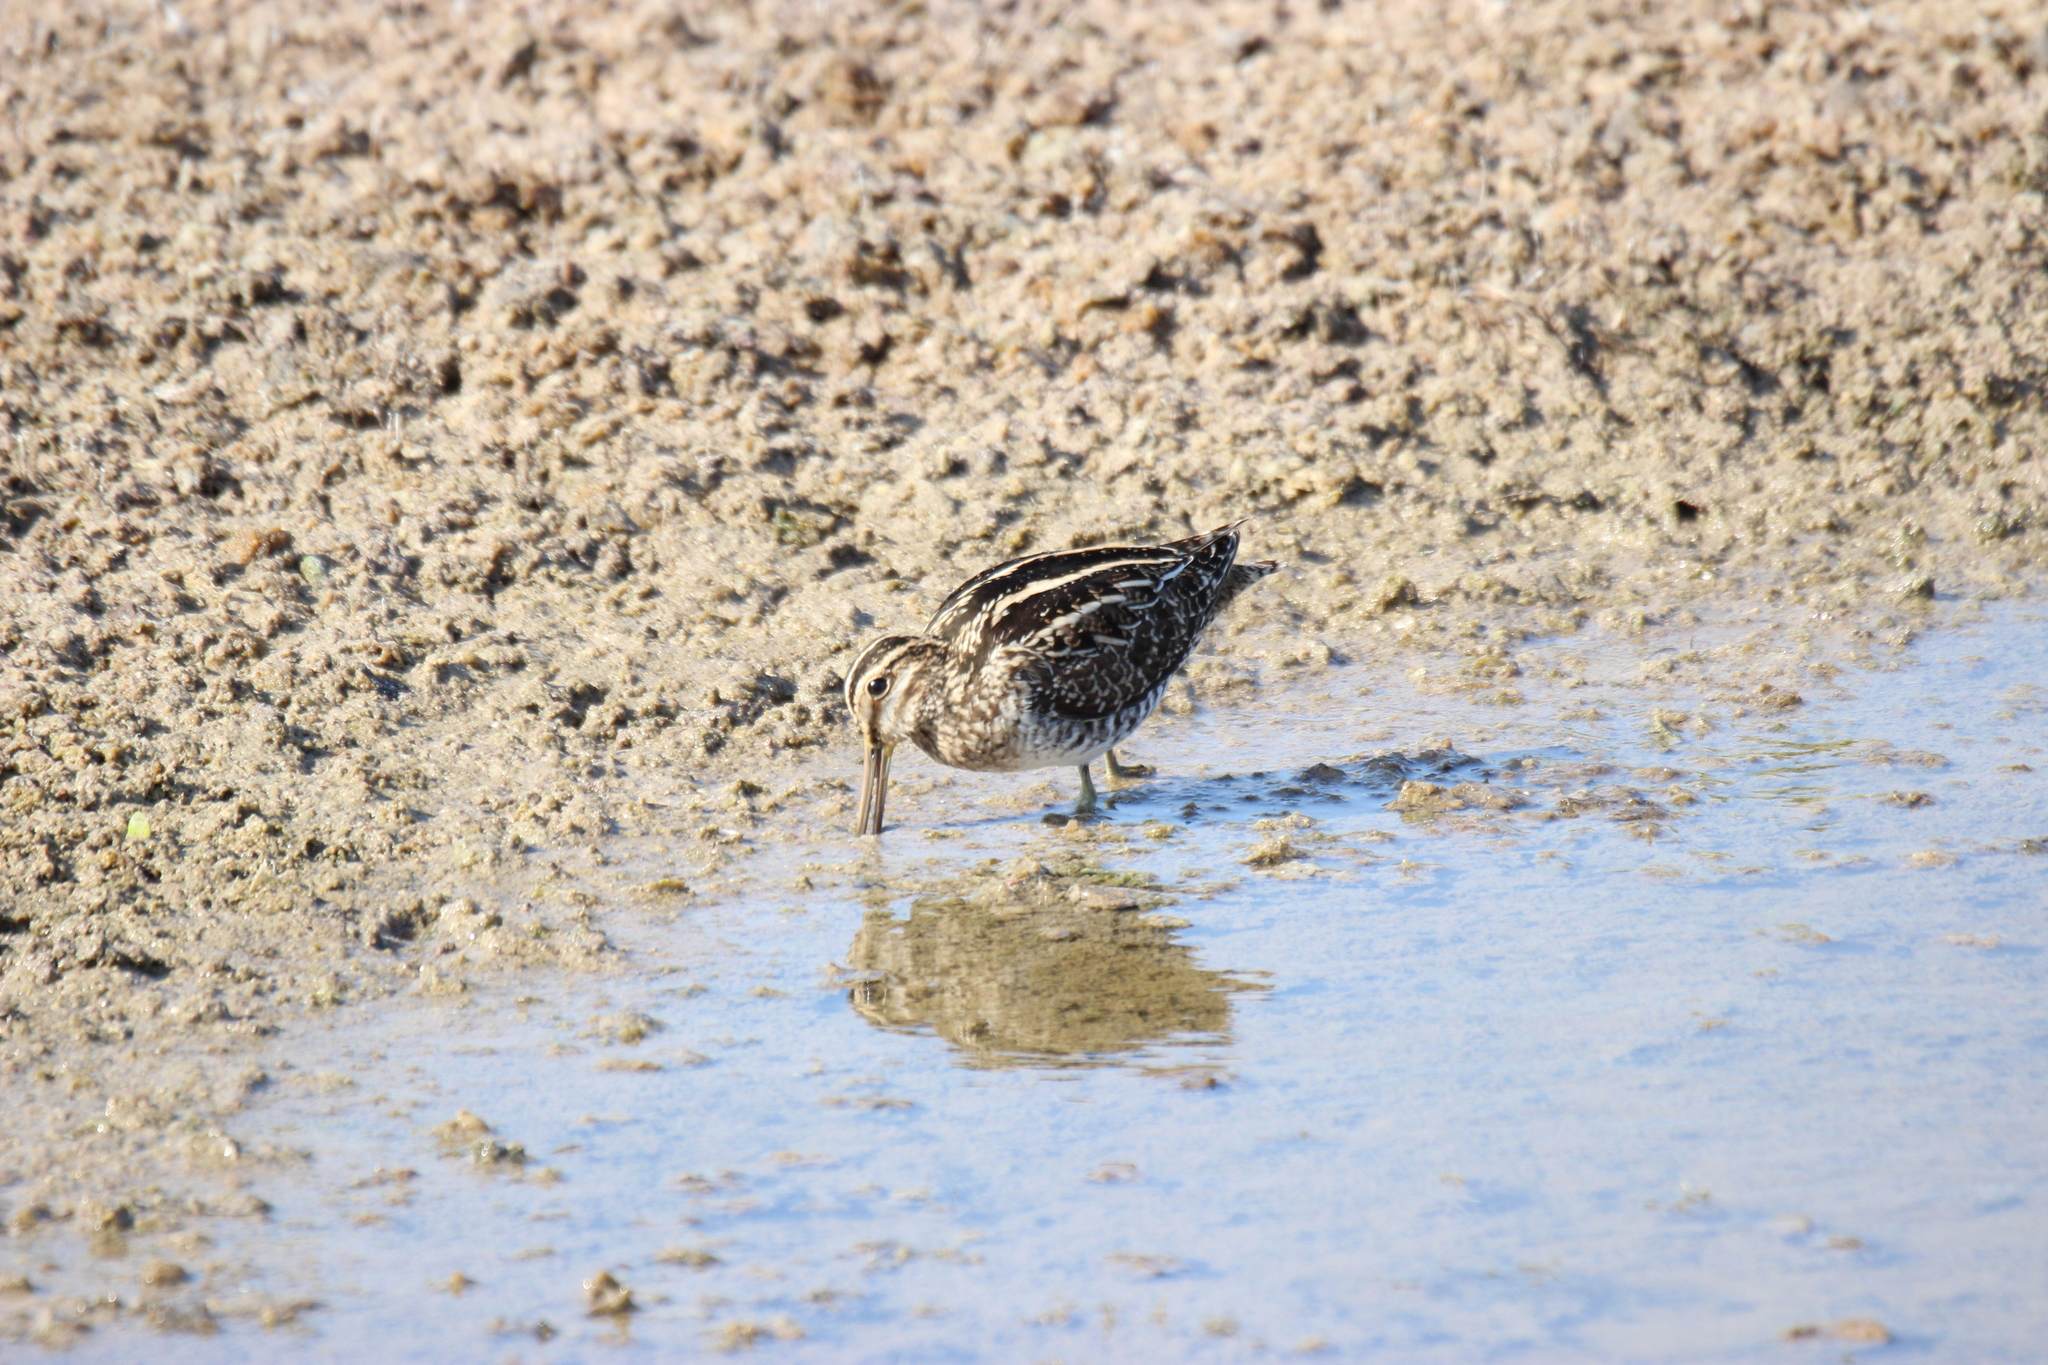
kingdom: Animalia
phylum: Chordata
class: Aves
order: Charadriiformes
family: Scolopacidae
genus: Gallinago
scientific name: Gallinago delicata
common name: Wilson's snipe
